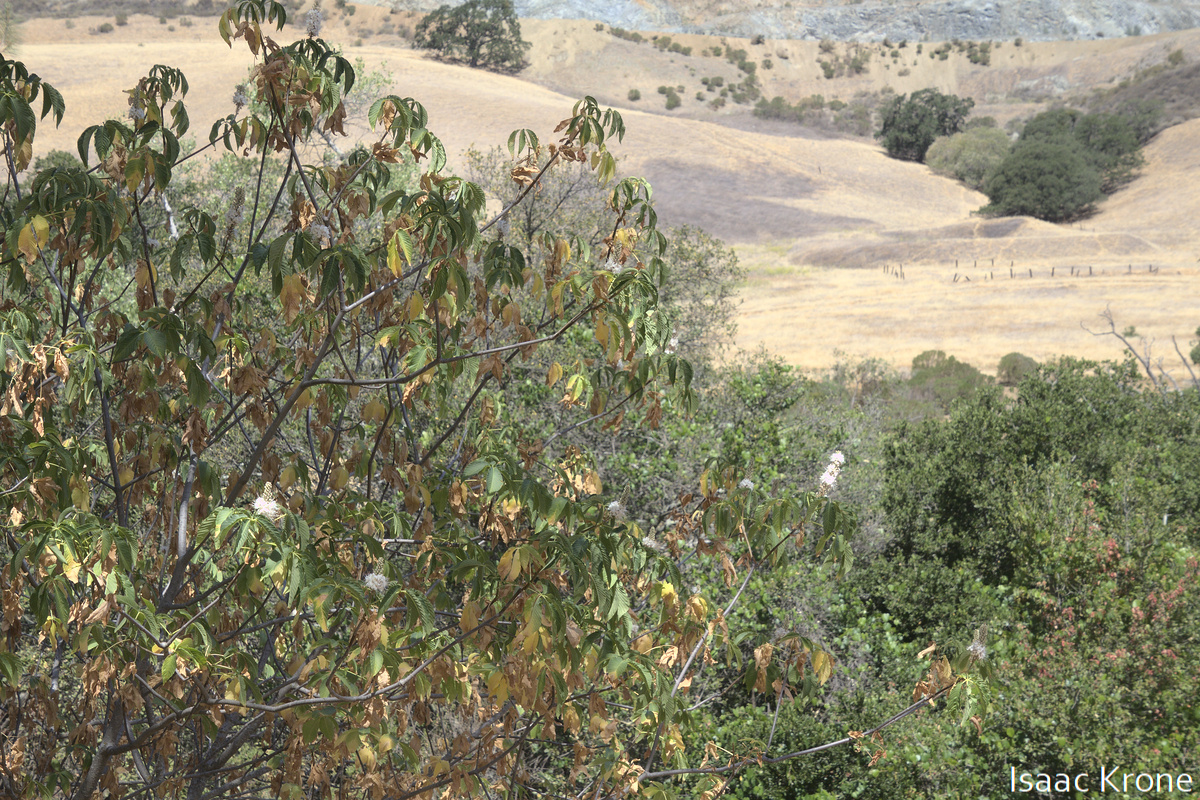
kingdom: Plantae
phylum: Tracheophyta
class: Magnoliopsida
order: Sapindales
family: Sapindaceae
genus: Aesculus
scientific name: Aesculus californica
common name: California buckeye
